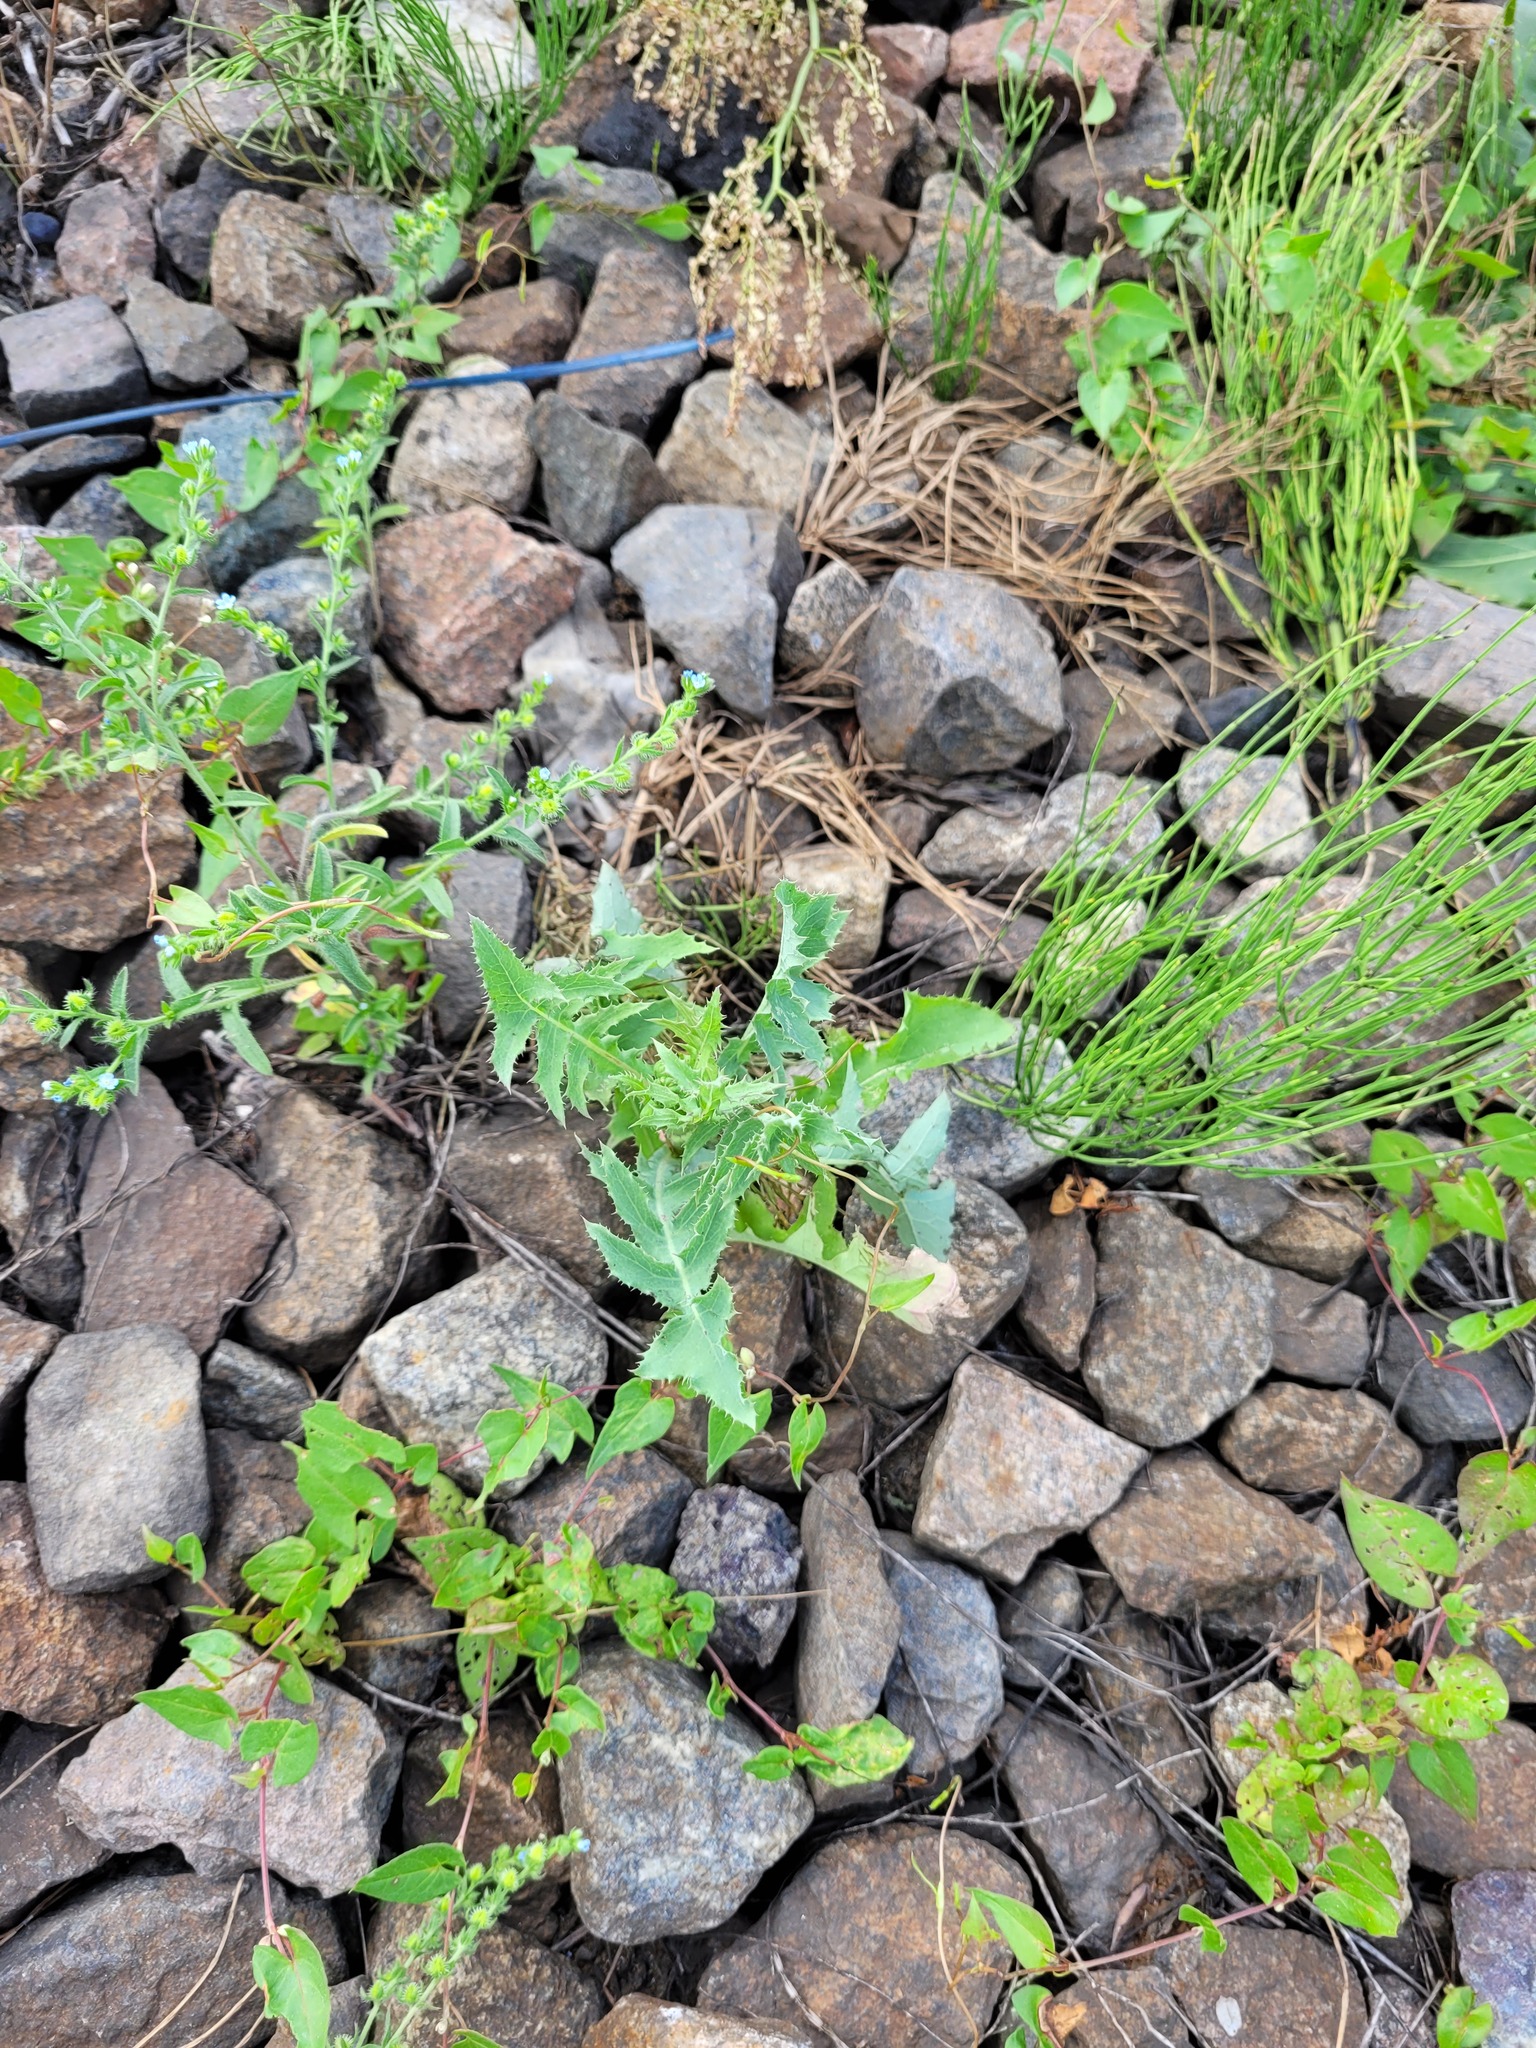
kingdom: Plantae
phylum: Tracheophyta
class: Magnoliopsida
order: Asterales
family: Asteraceae
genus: Sonchus
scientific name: Sonchus oleraceus
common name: Common sowthistle
